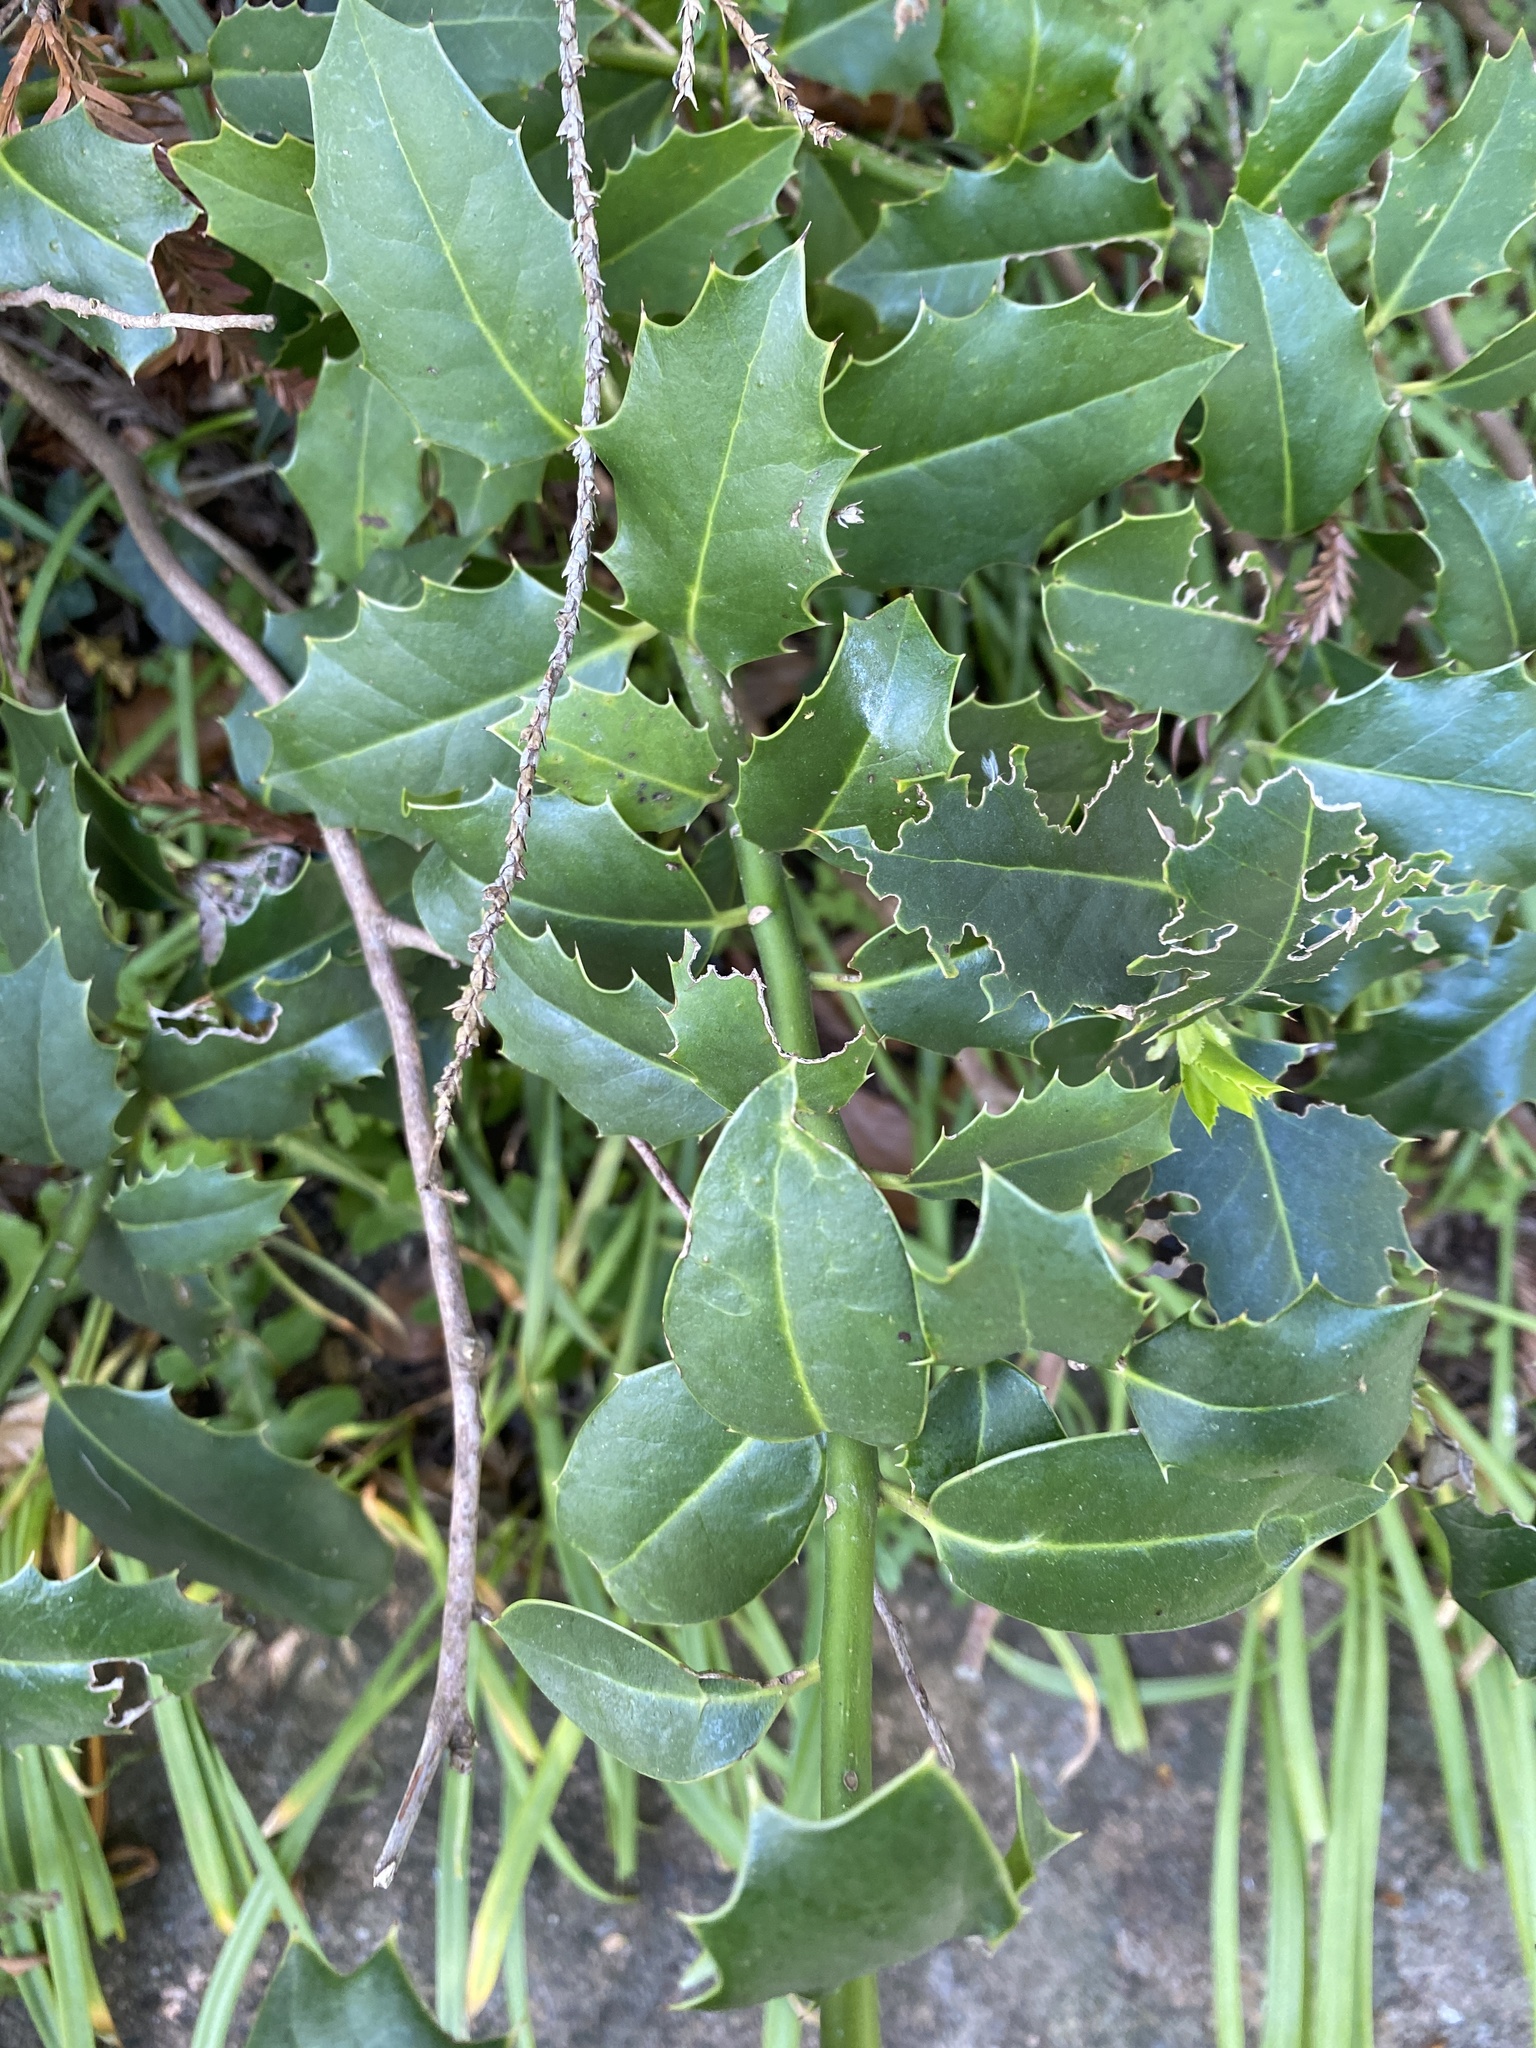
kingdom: Plantae
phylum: Tracheophyta
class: Magnoliopsida
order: Aquifoliales
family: Aquifoliaceae
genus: Ilex
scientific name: Ilex aquifolium
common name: English holly
